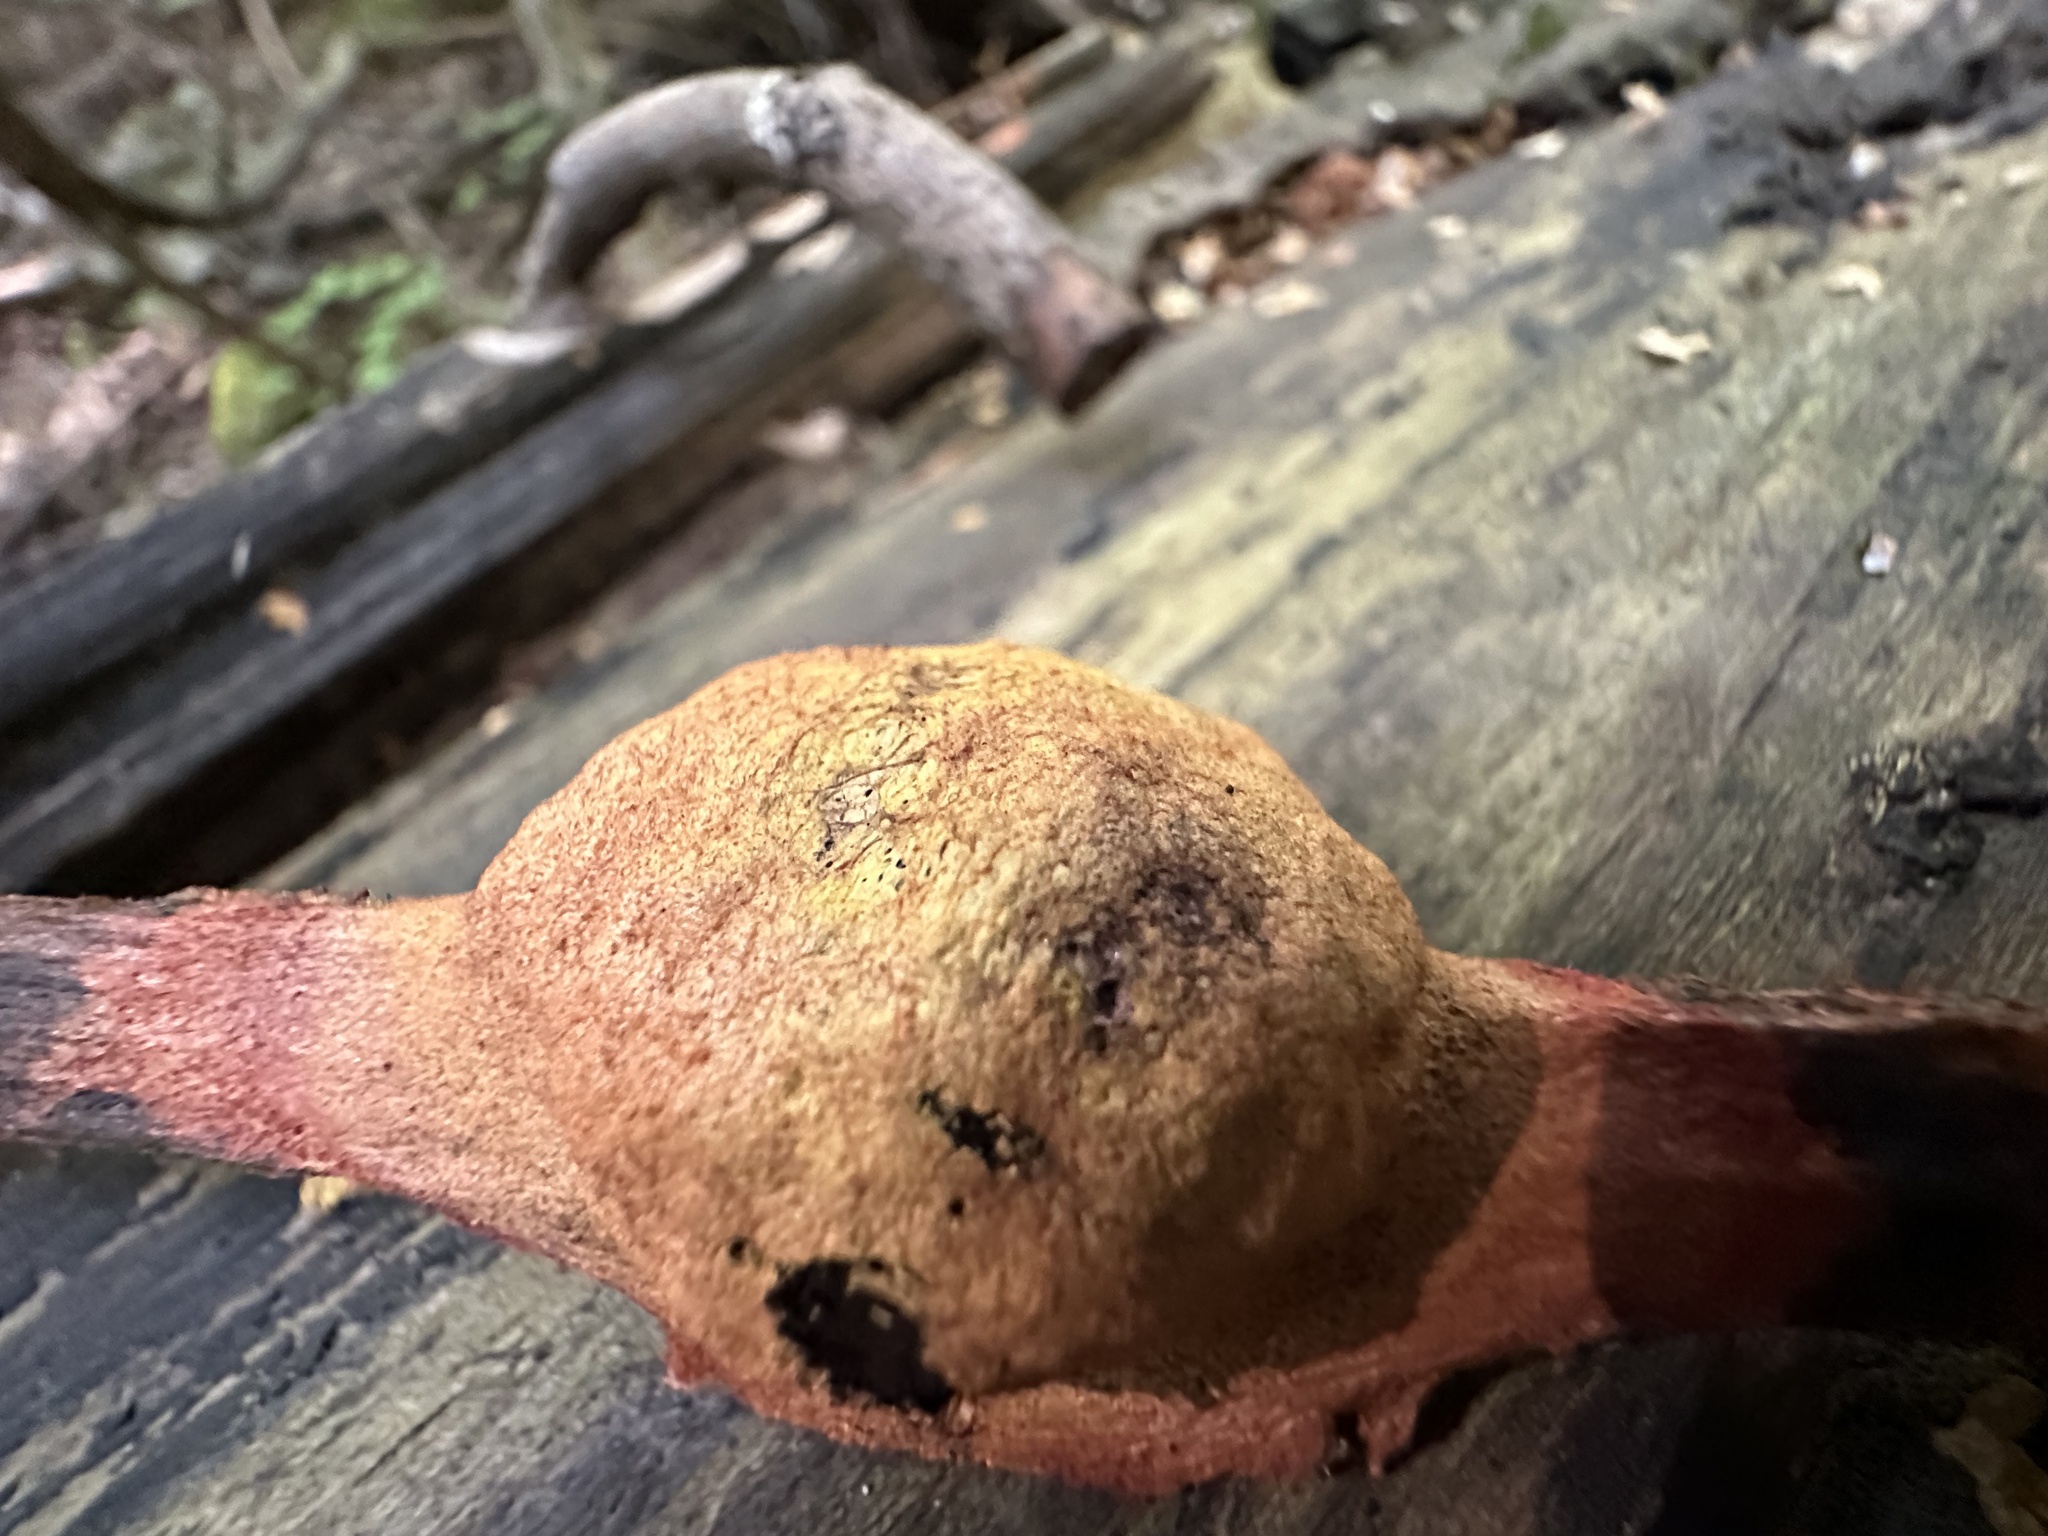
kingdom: Protozoa
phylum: Mycetozoa
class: Myxomycetes
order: Physarales
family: Physaraceae
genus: Fuligo
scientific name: Fuligo leviderma
